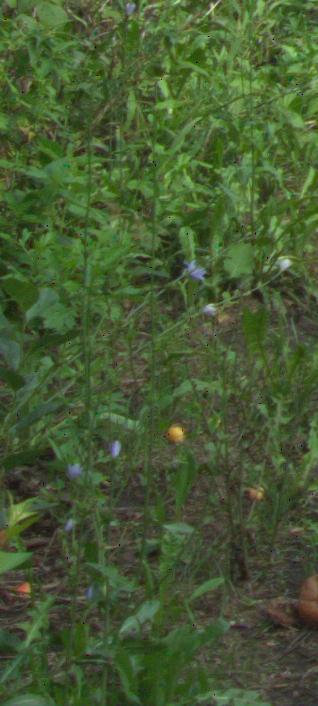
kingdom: Plantae
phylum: Tracheophyta
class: Magnoliopsida
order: Asterales
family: Asteraceae
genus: Cichorium
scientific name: Cichorium intybus
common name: Chicory
